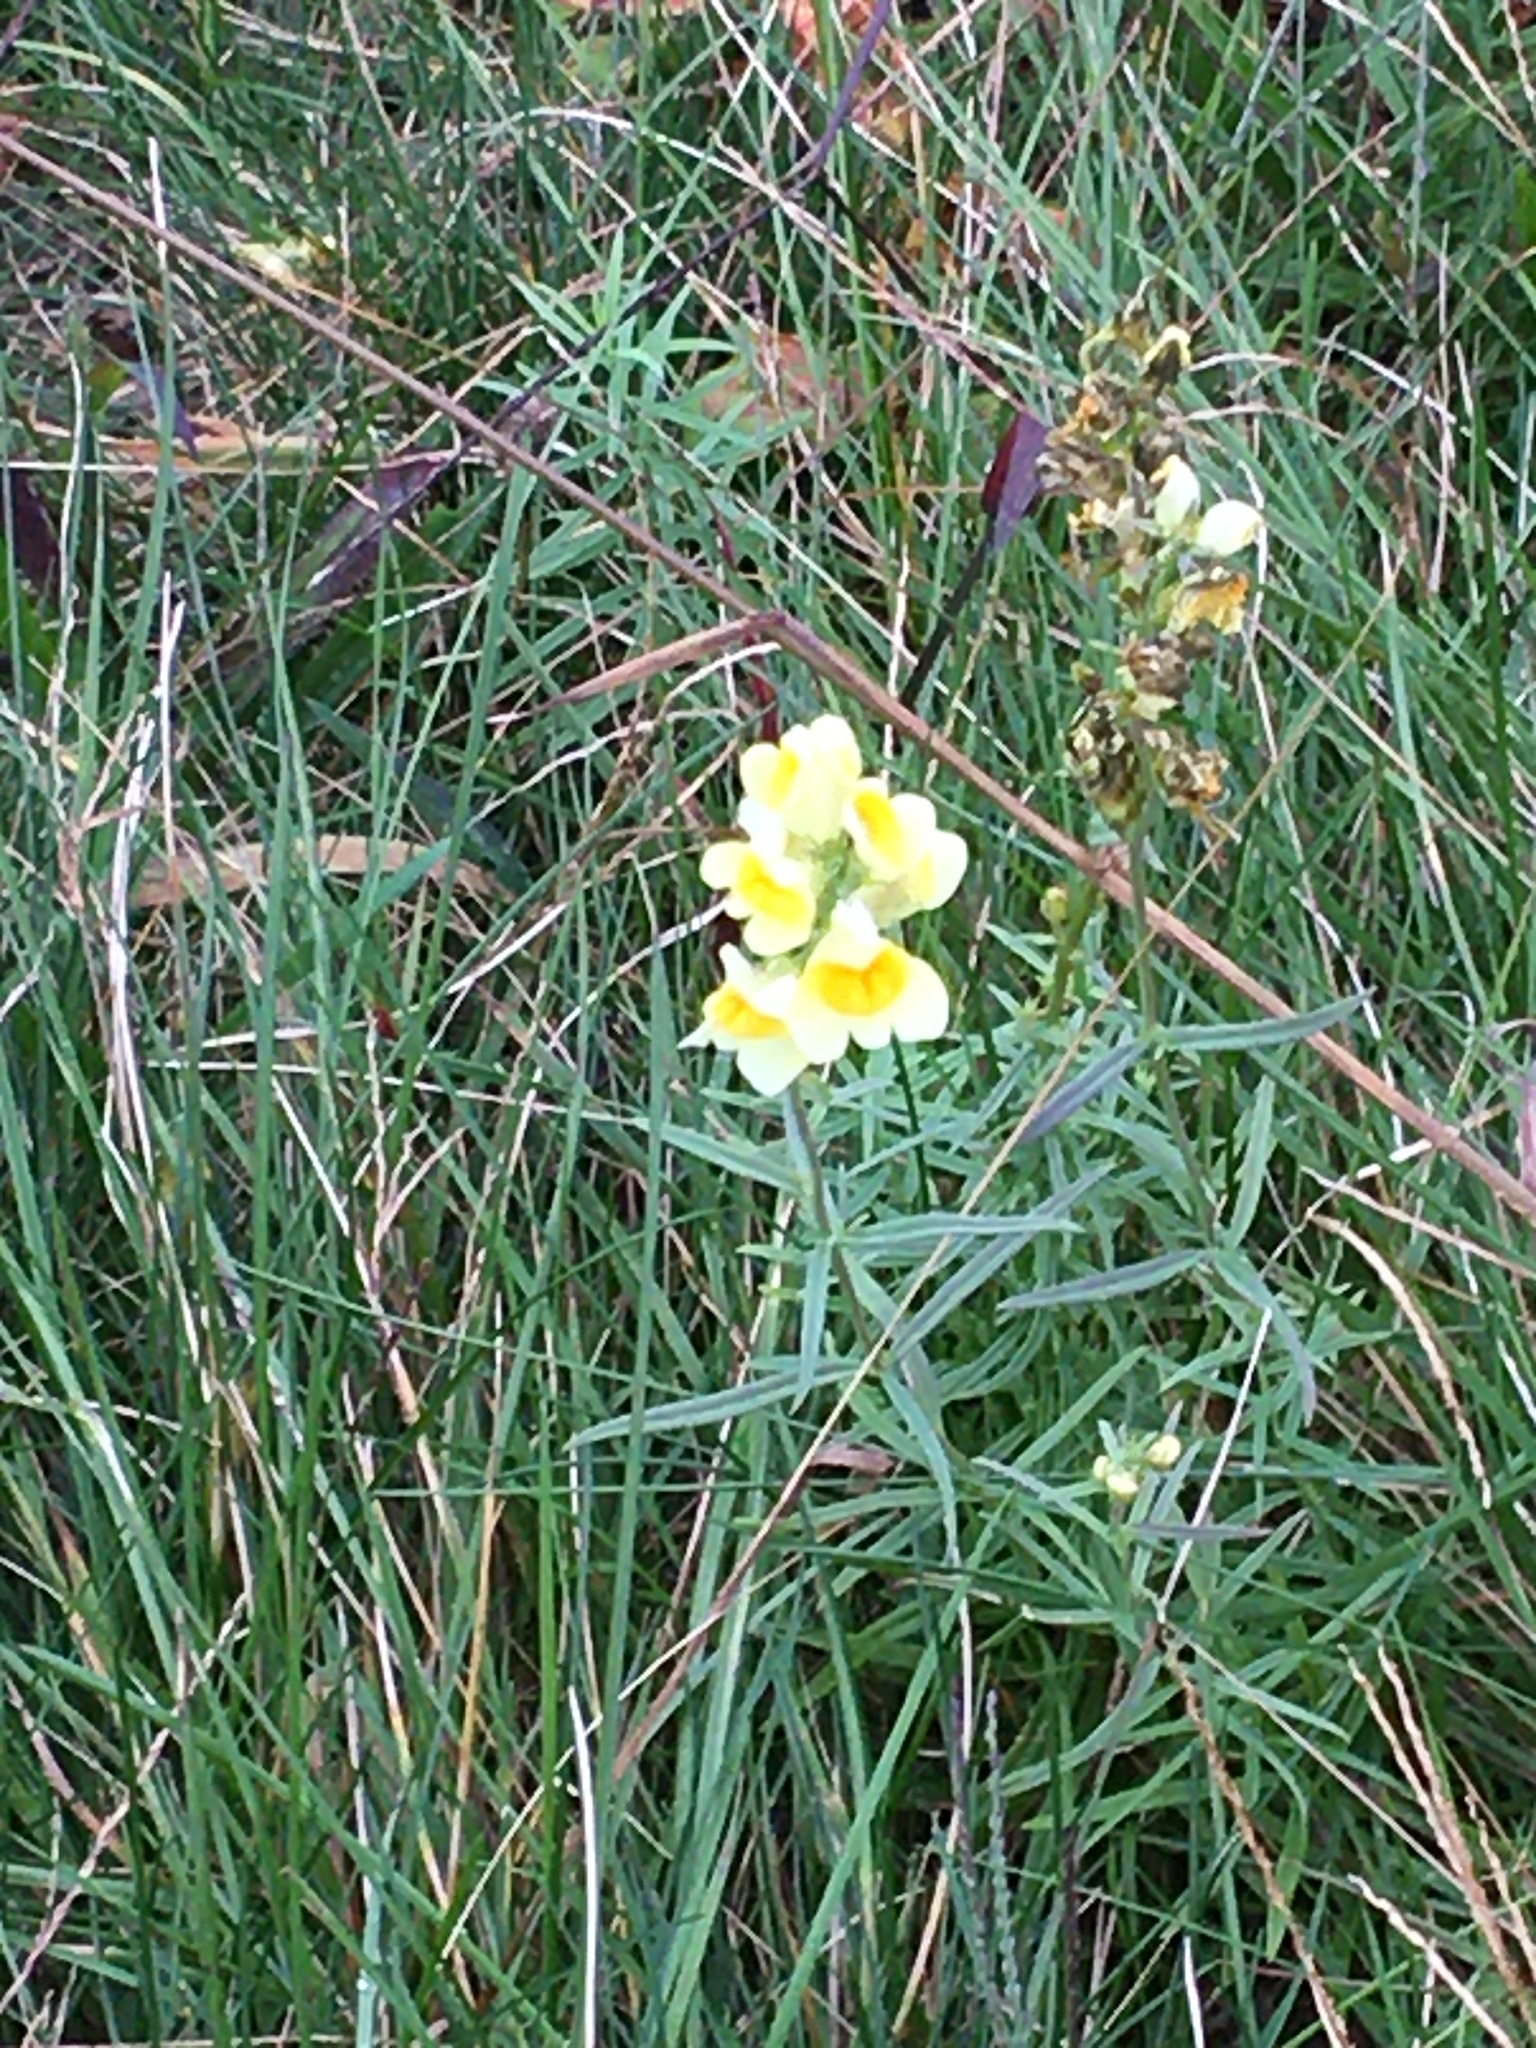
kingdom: Plantae
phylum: Tracheophyta
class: Magnoliopsida
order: Lamiales
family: Plantaginaceae
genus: Linaria
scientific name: Linaria vulgaris
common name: Butter and eggs
